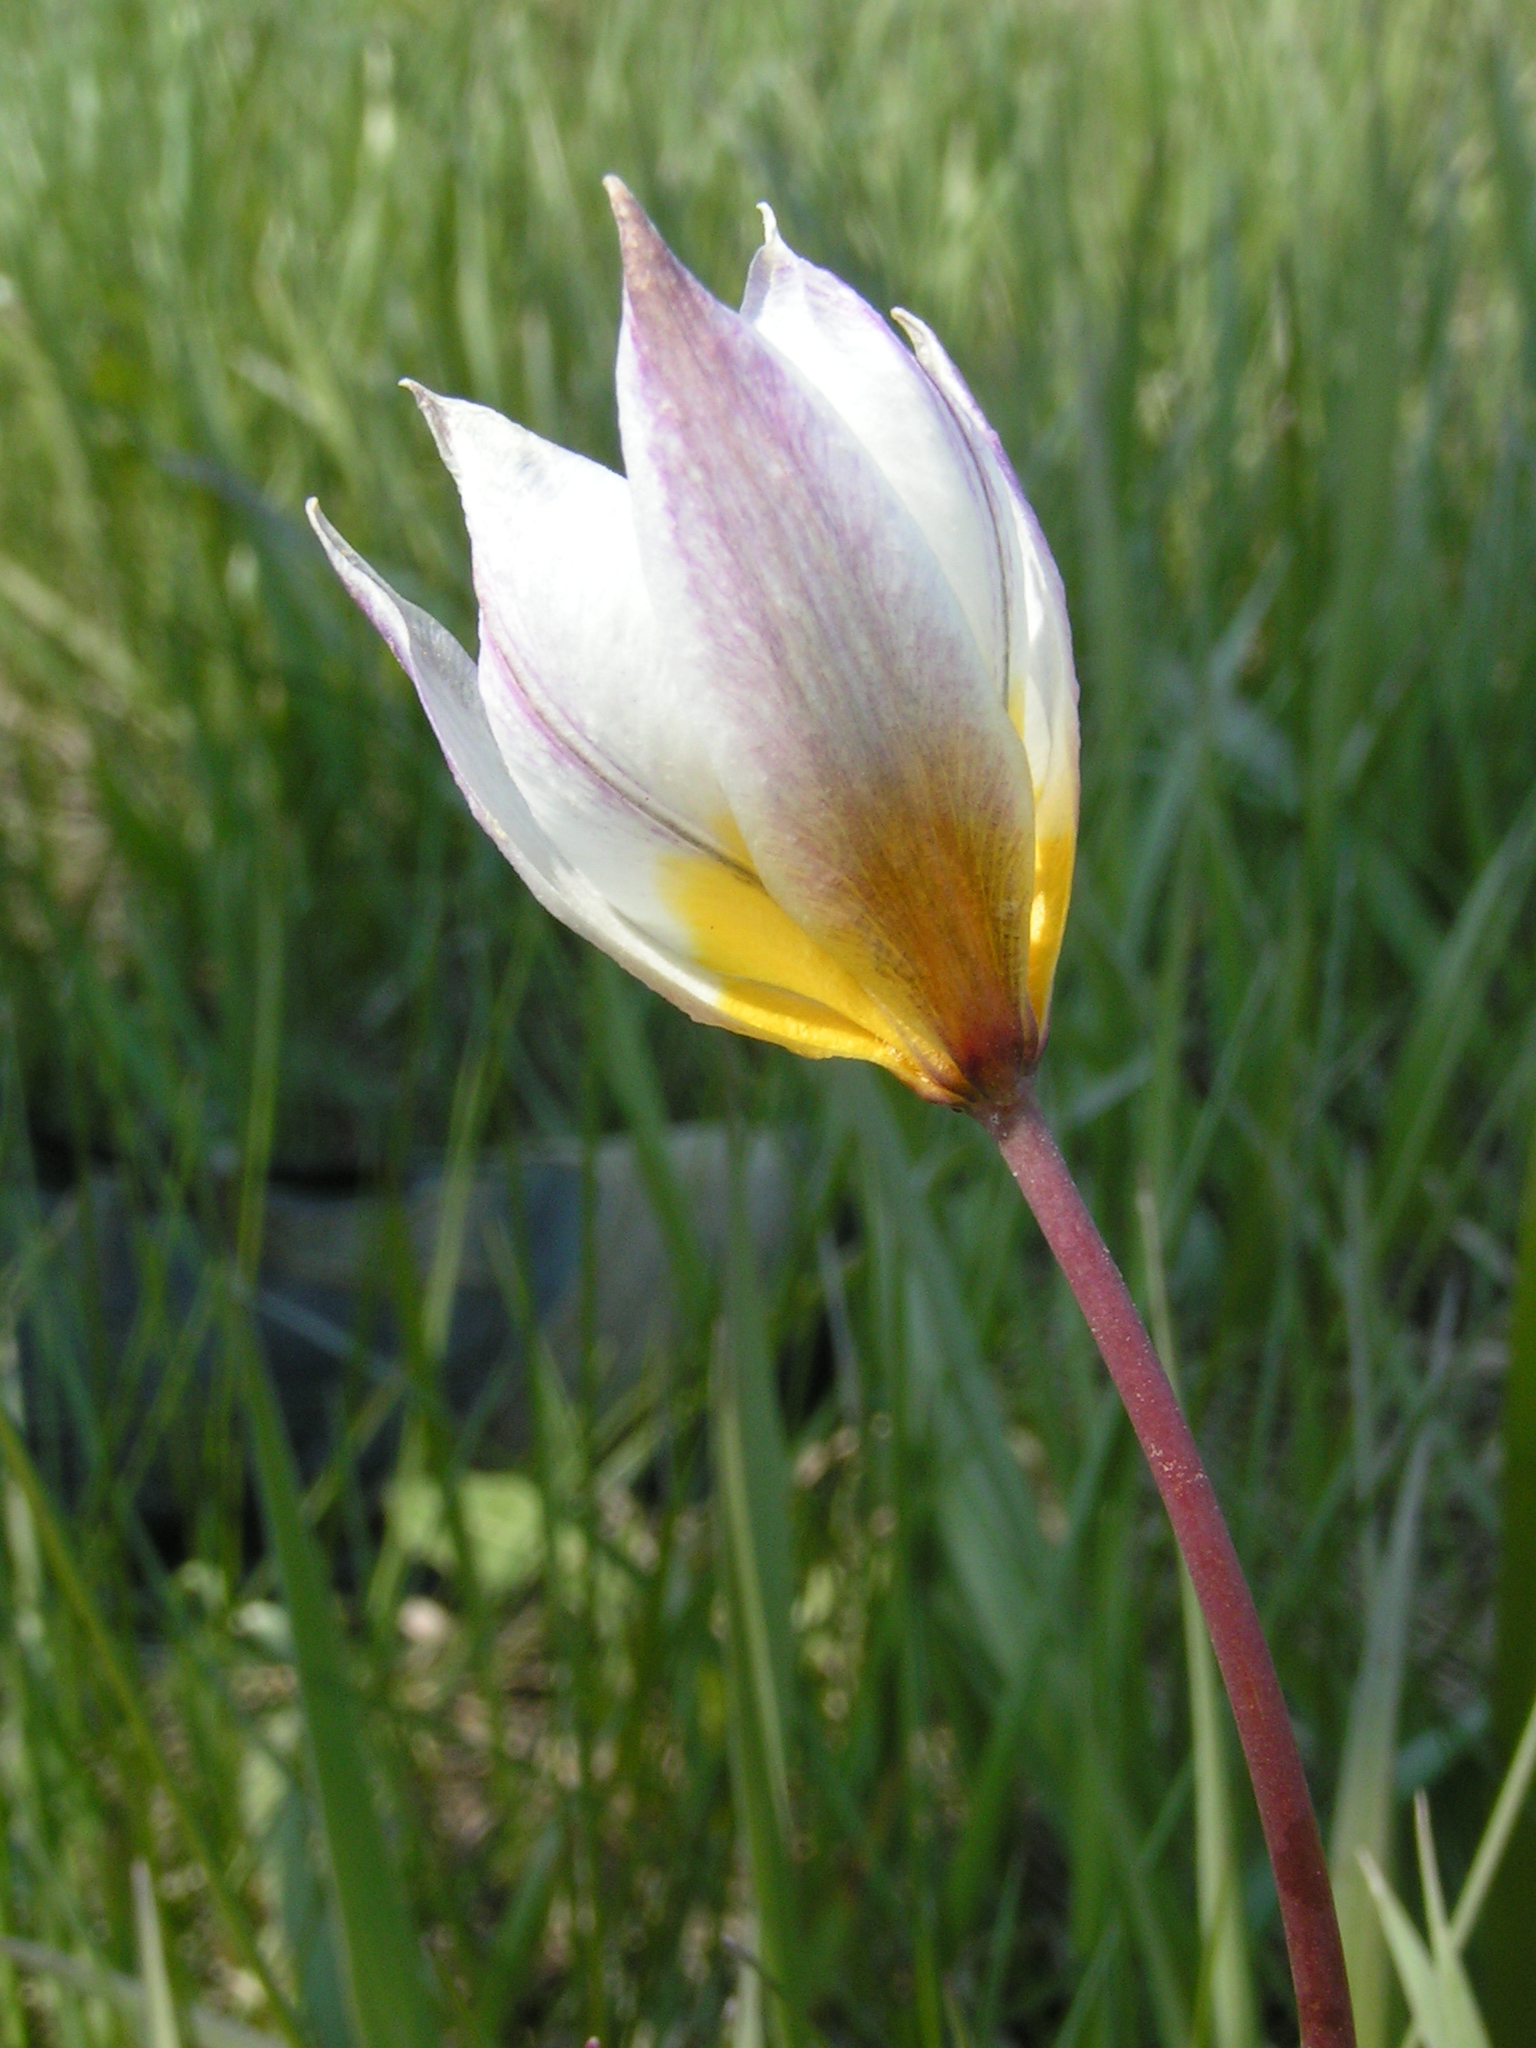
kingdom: Plantae
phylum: Tracheophyta
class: Liliopsida
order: Liliales
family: Liliaceae
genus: Tulipa
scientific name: Tulipa sylvestris
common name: Wild tulip
